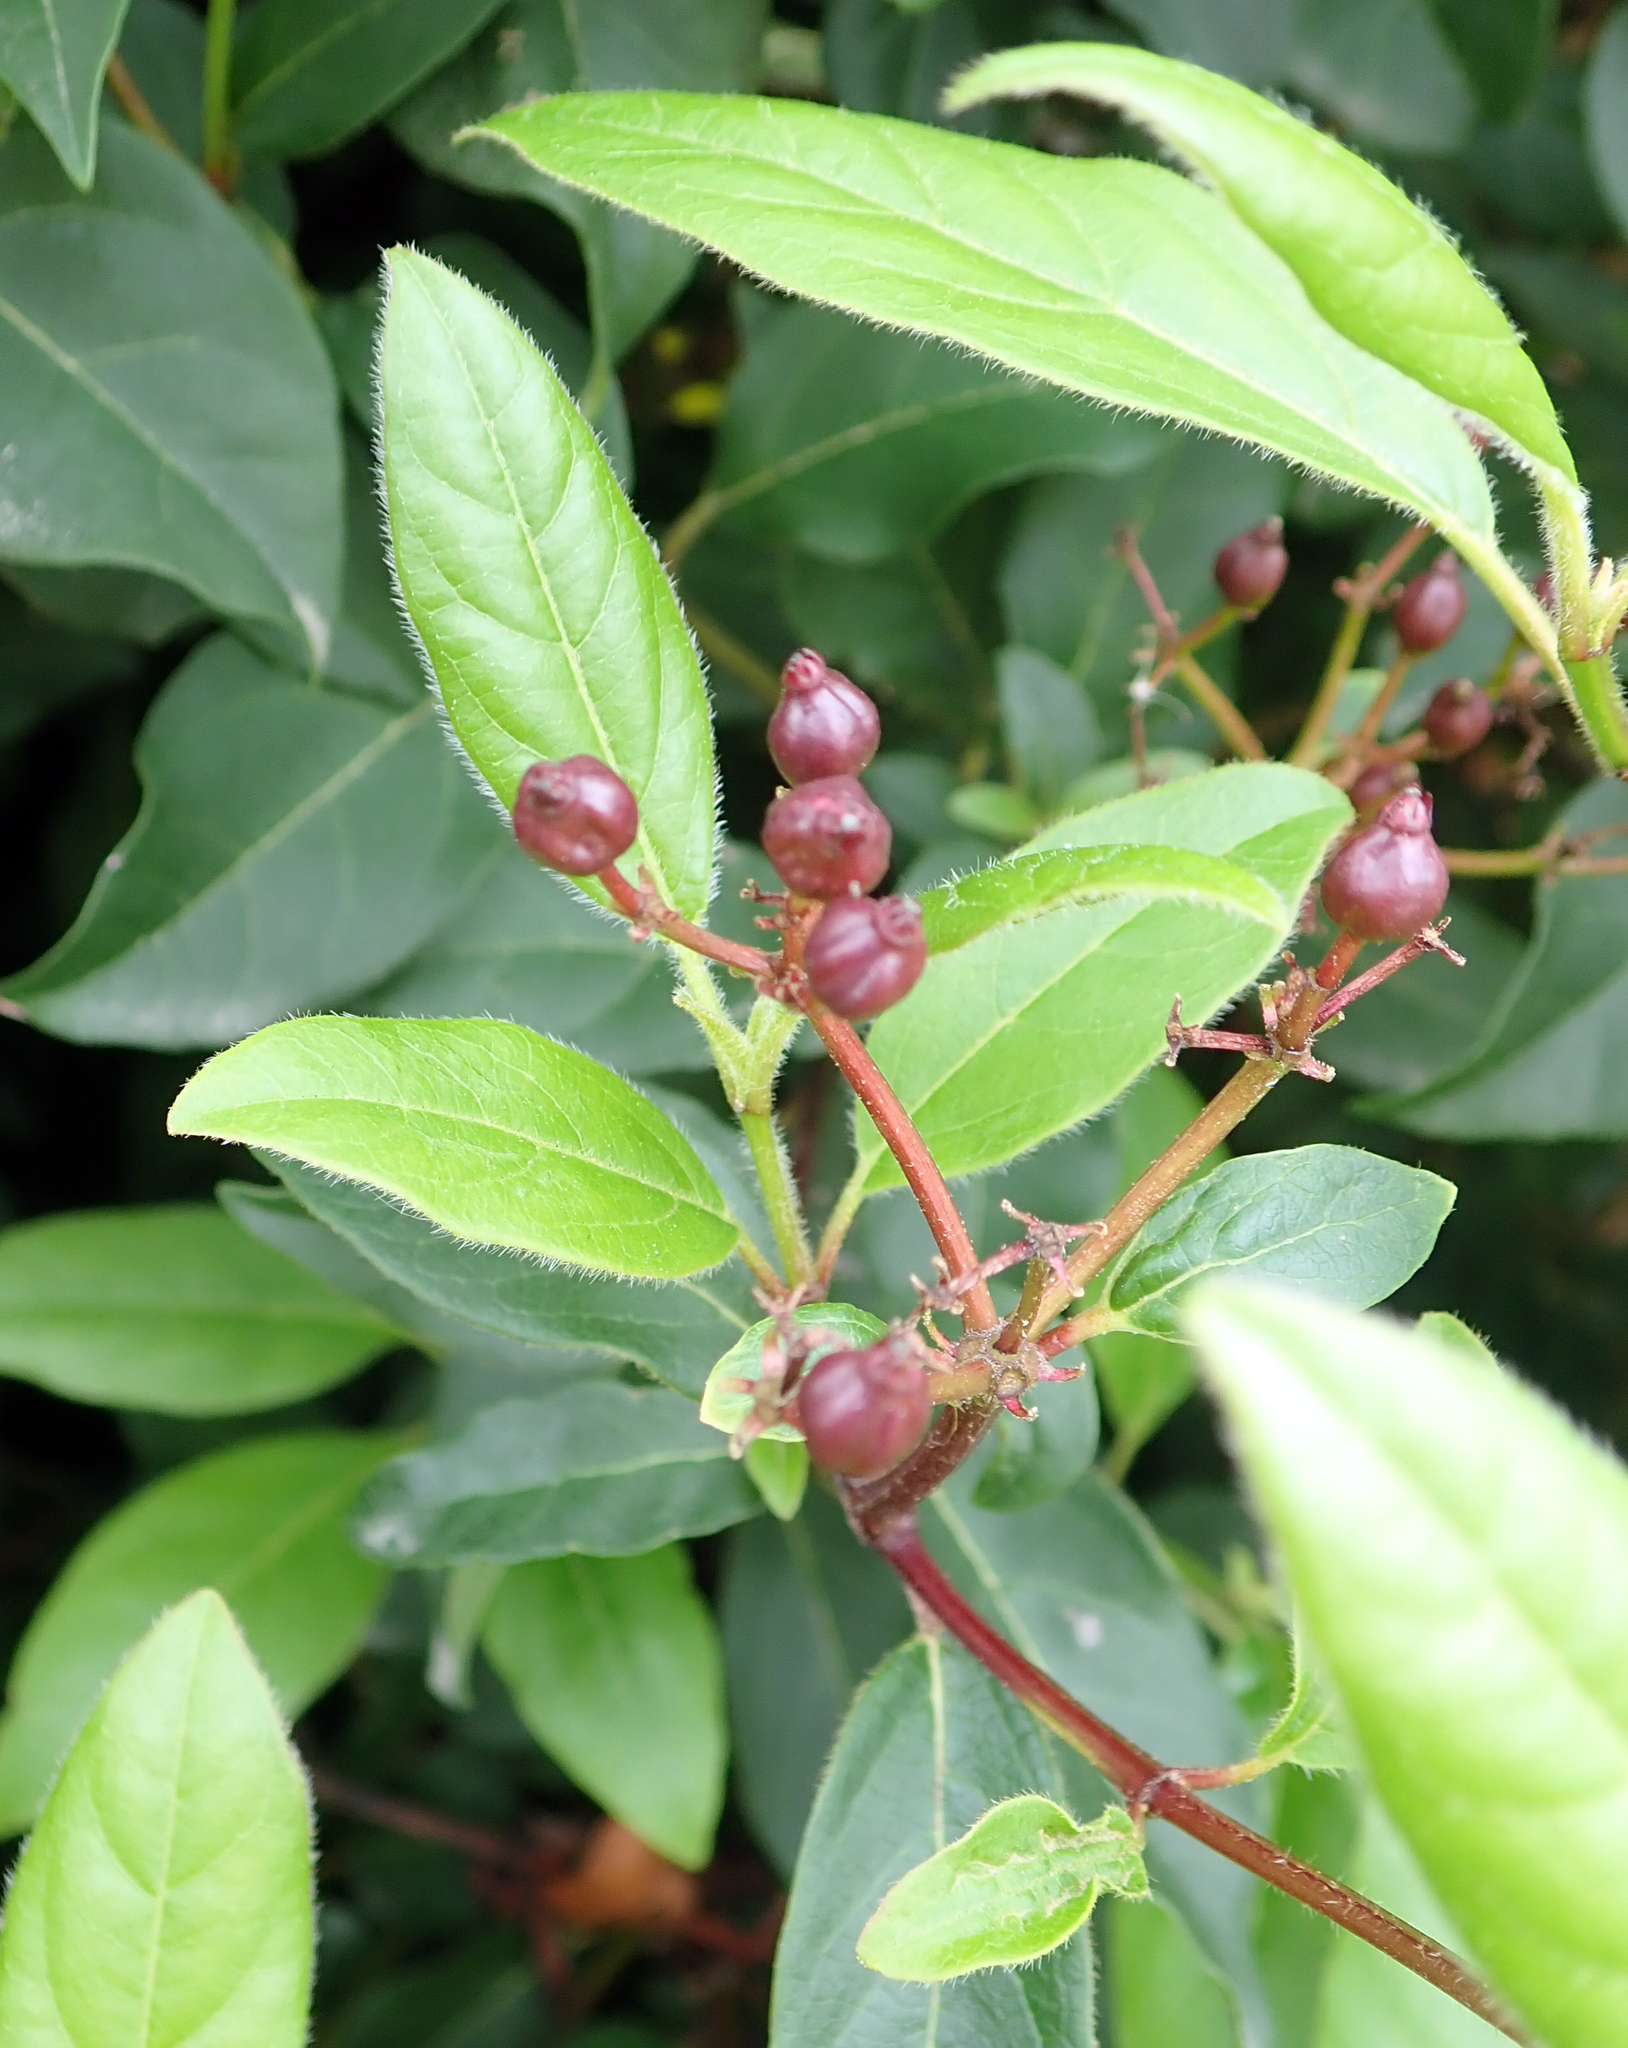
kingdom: Plantae
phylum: Tracheophyta
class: Magnoliopsida
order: Dipsacales
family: Viburnaceae
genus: Viburnum
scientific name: Viburnum tinus
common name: Laurustinus
